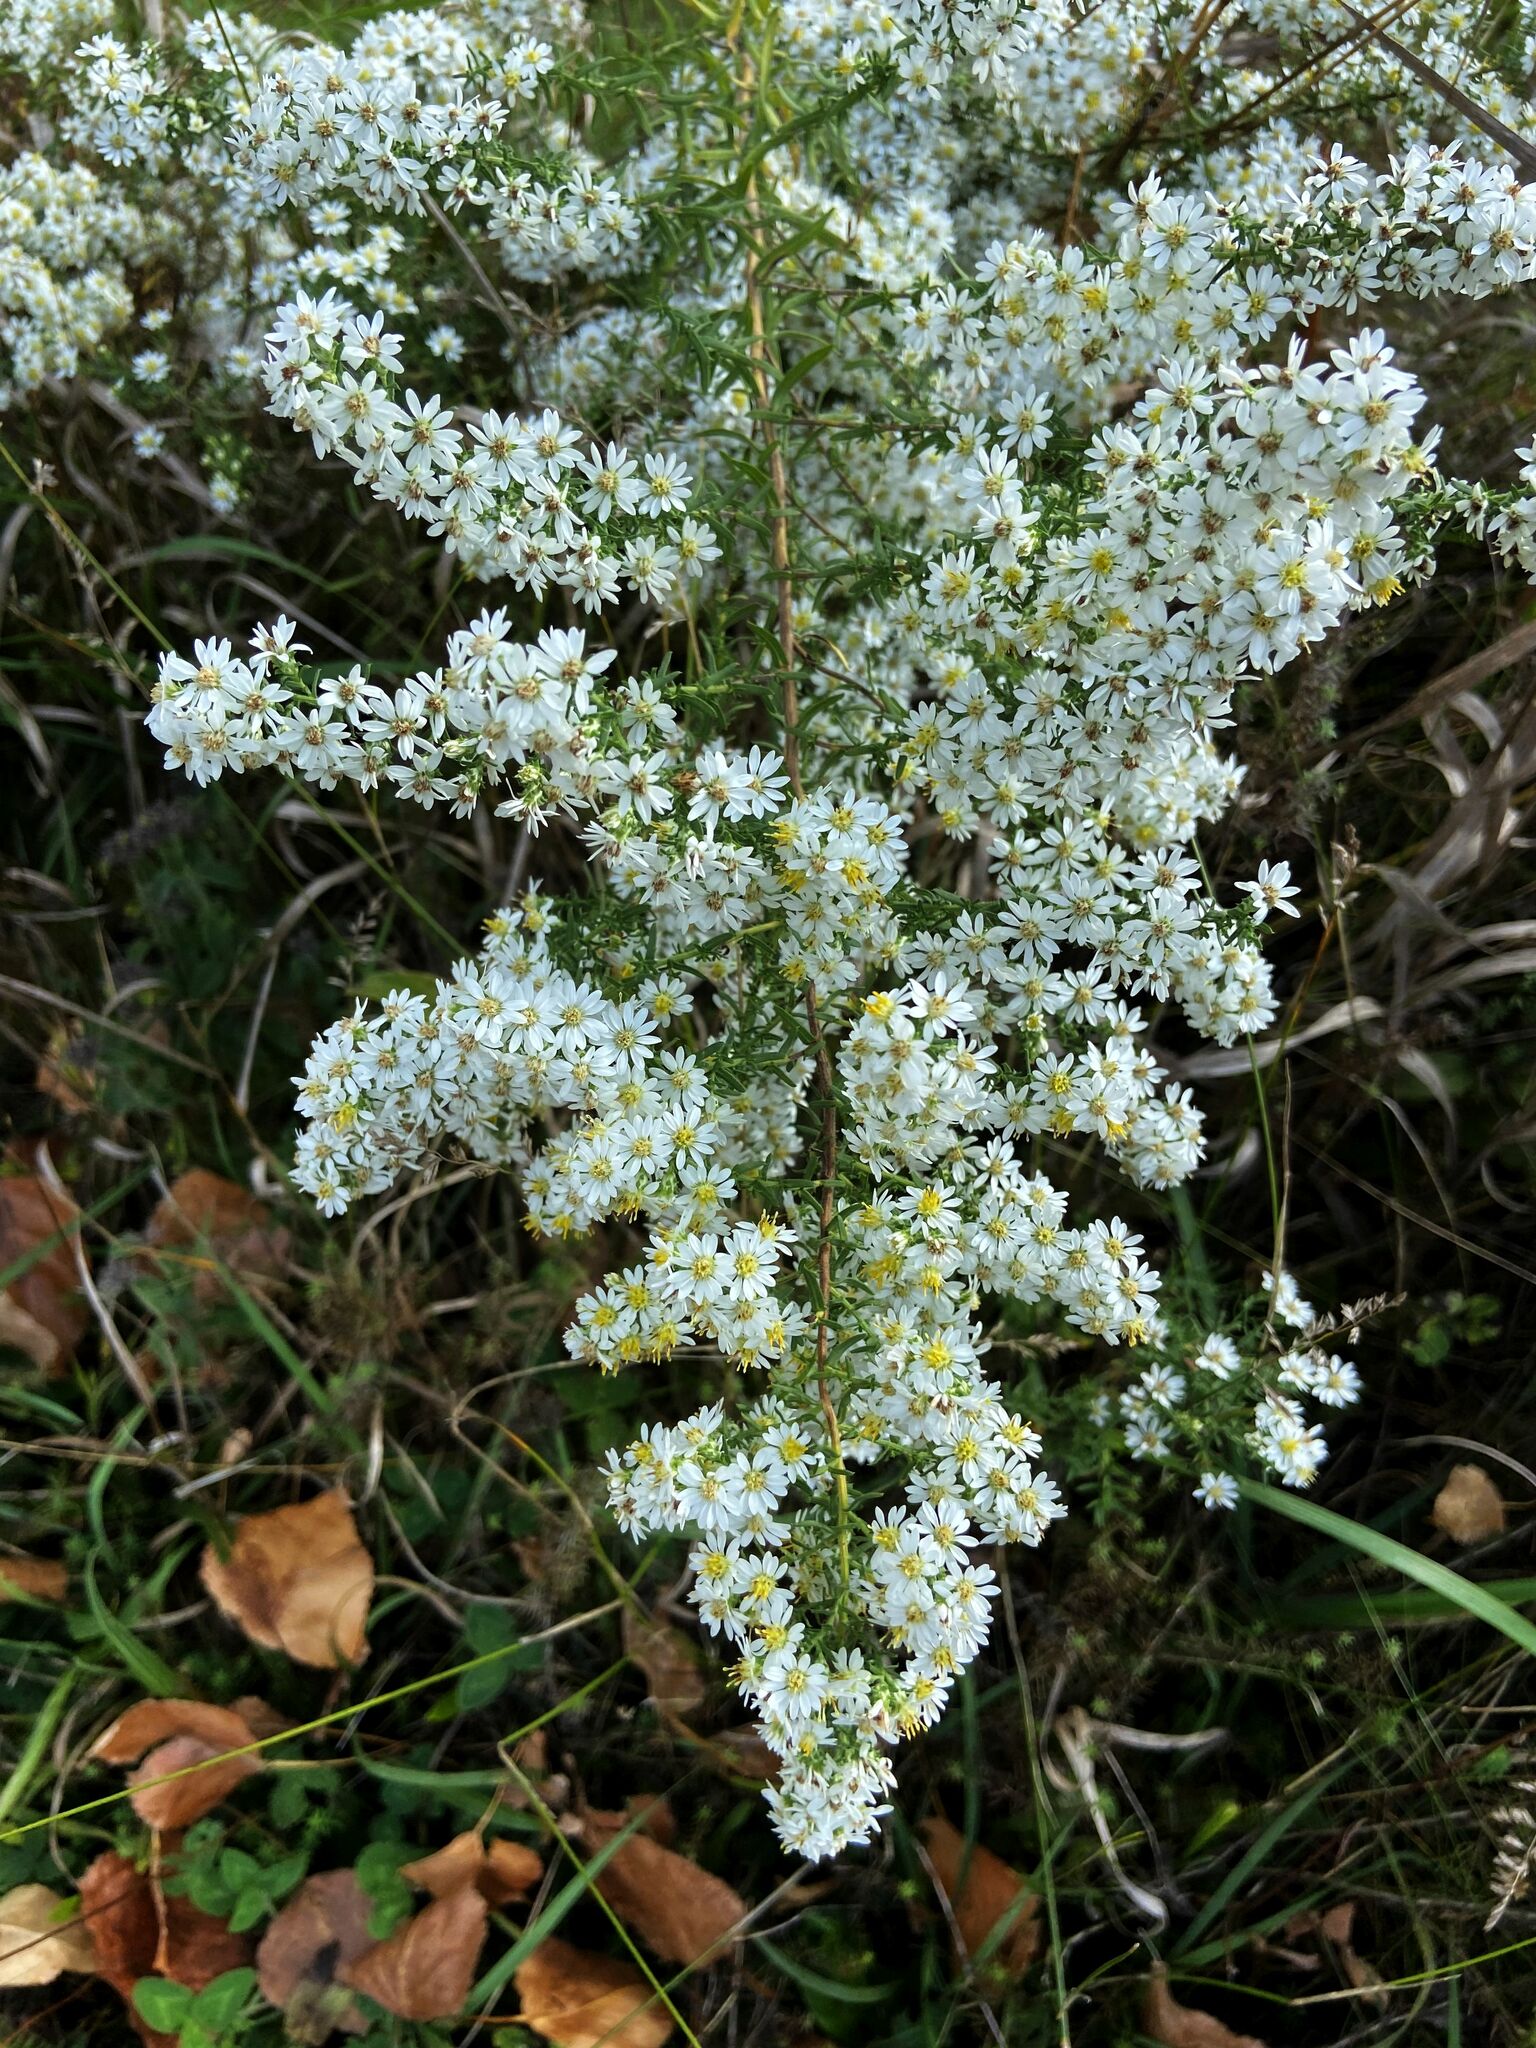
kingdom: Plantae
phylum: Tracheophyta
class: Magnoliopsida
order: Asterales
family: Asteraceae
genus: Symphyotrichum
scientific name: Symphyotrichum ericoides
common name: Heath aster
